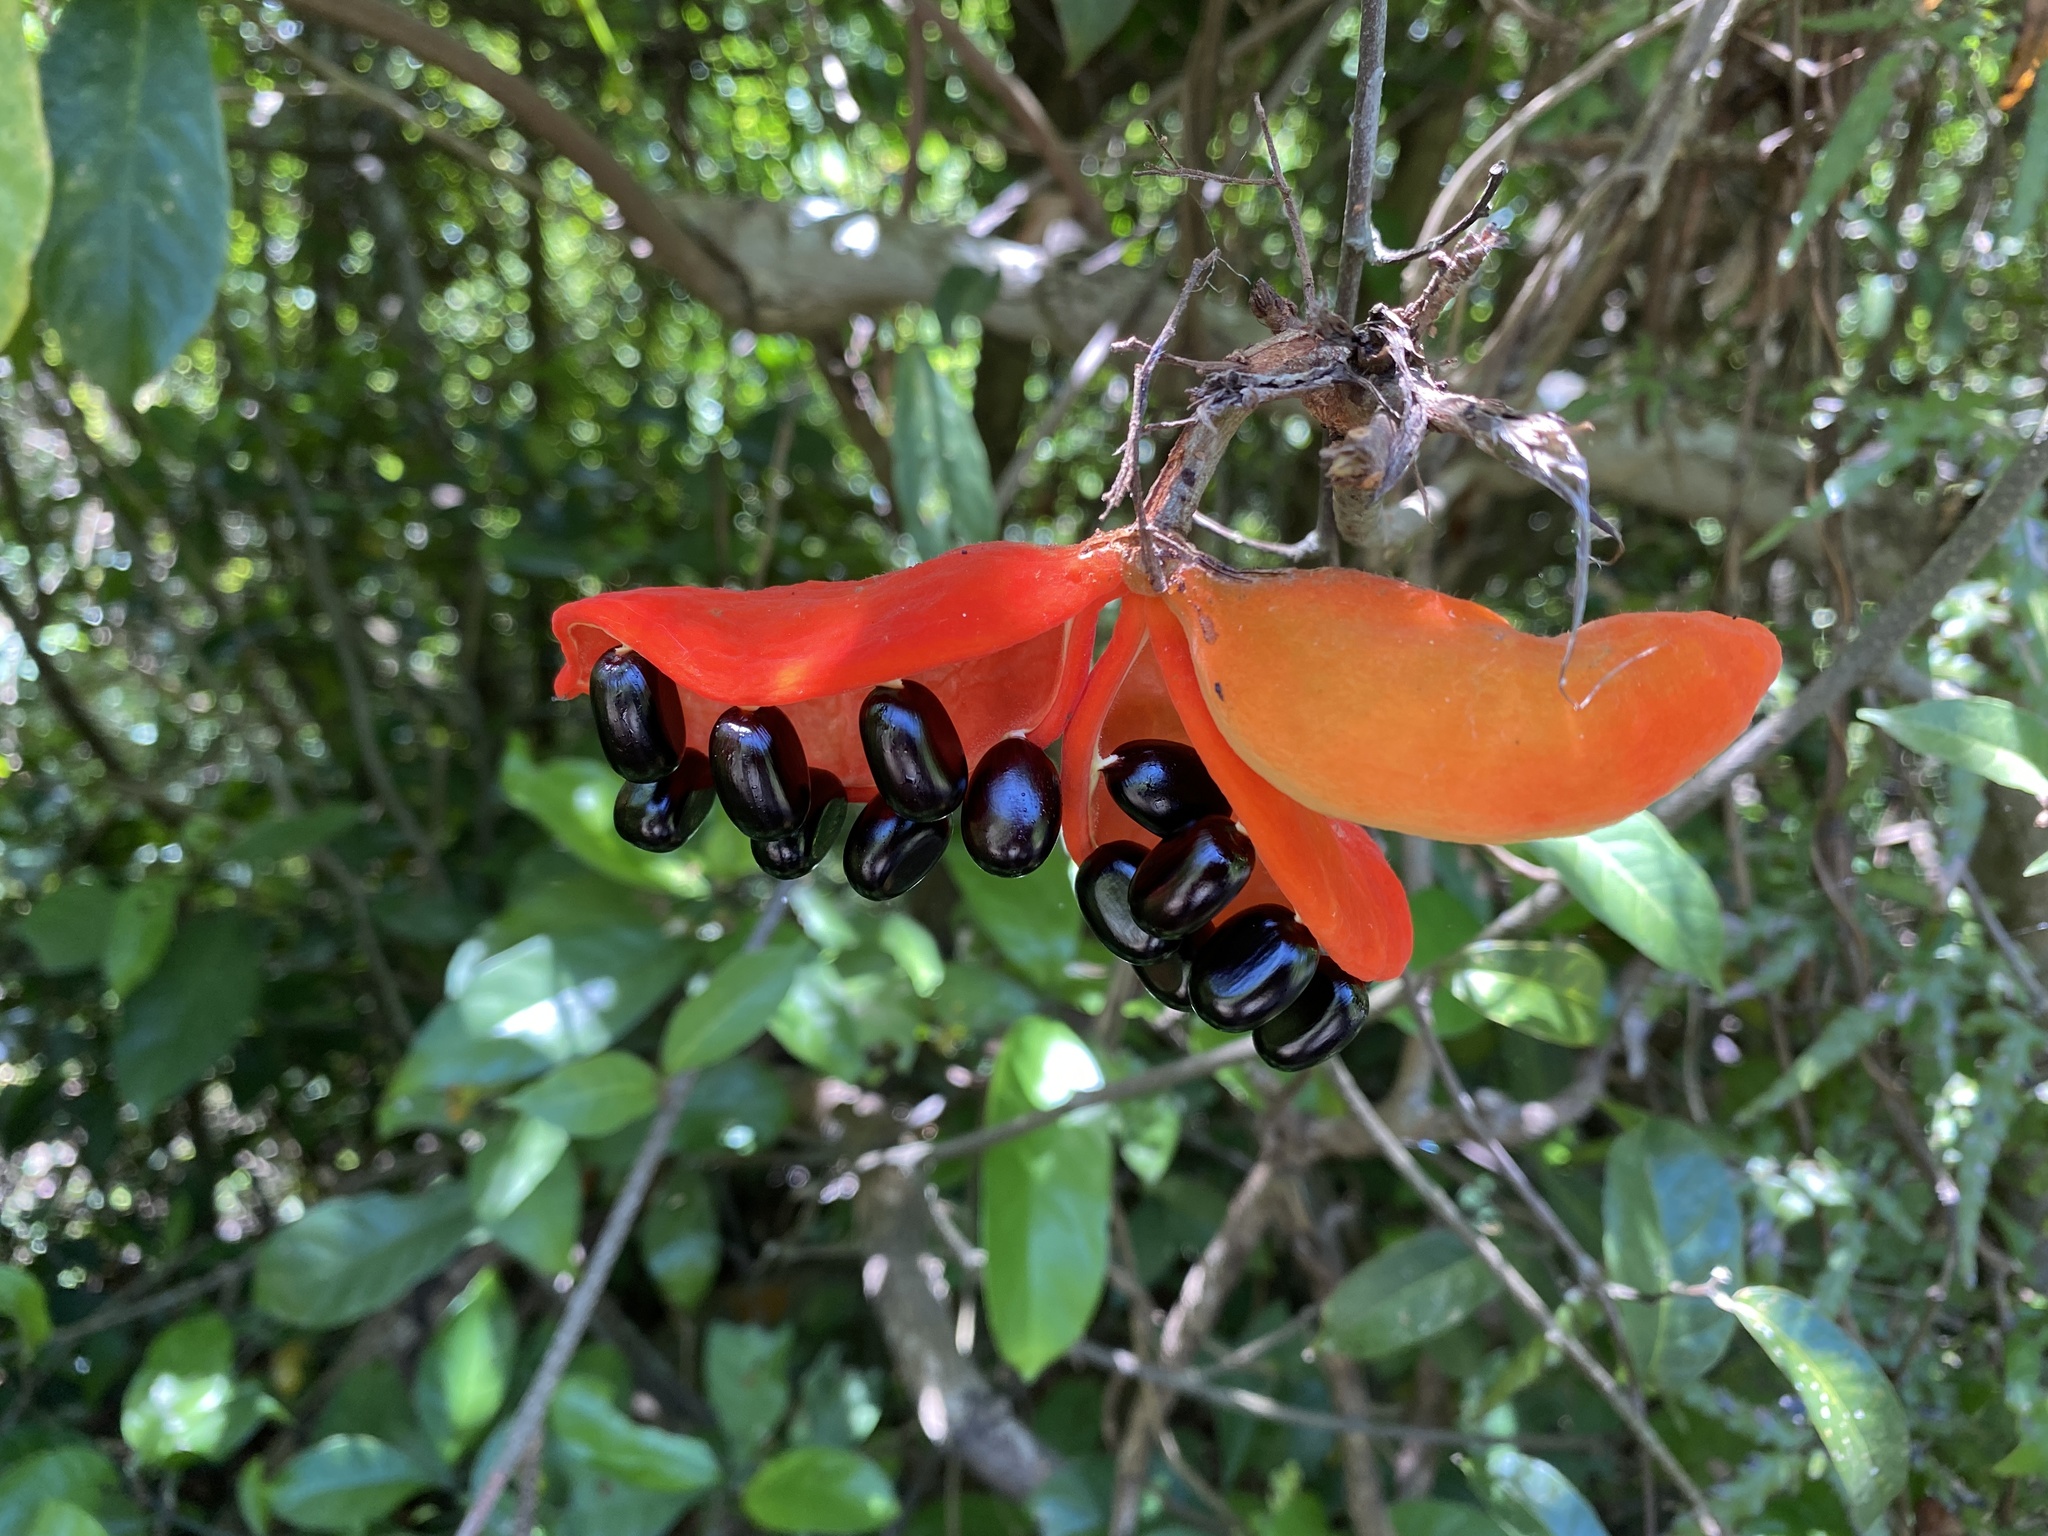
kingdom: Plantae
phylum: Tracheophyta
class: Magnoliopsida
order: Malvales
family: Malvaceae
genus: Sterculia
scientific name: Sterculia lanceolata
